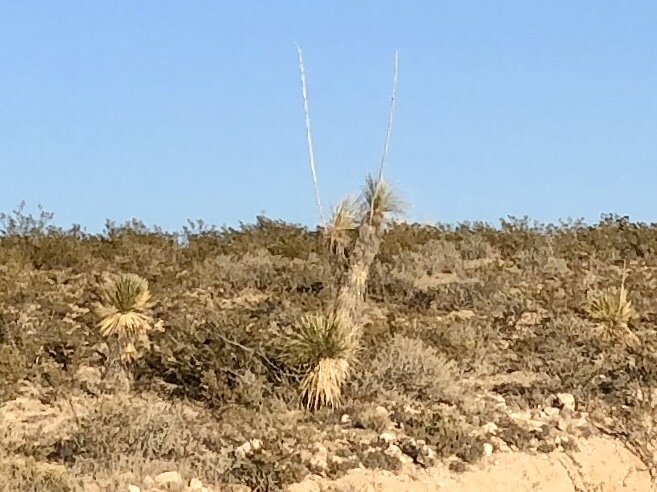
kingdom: Plantae
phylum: Tracheophyta
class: Liliopsida
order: Asparagales
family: Asparagaceae
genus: Yucca
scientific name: Yucca elata
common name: Palmella
